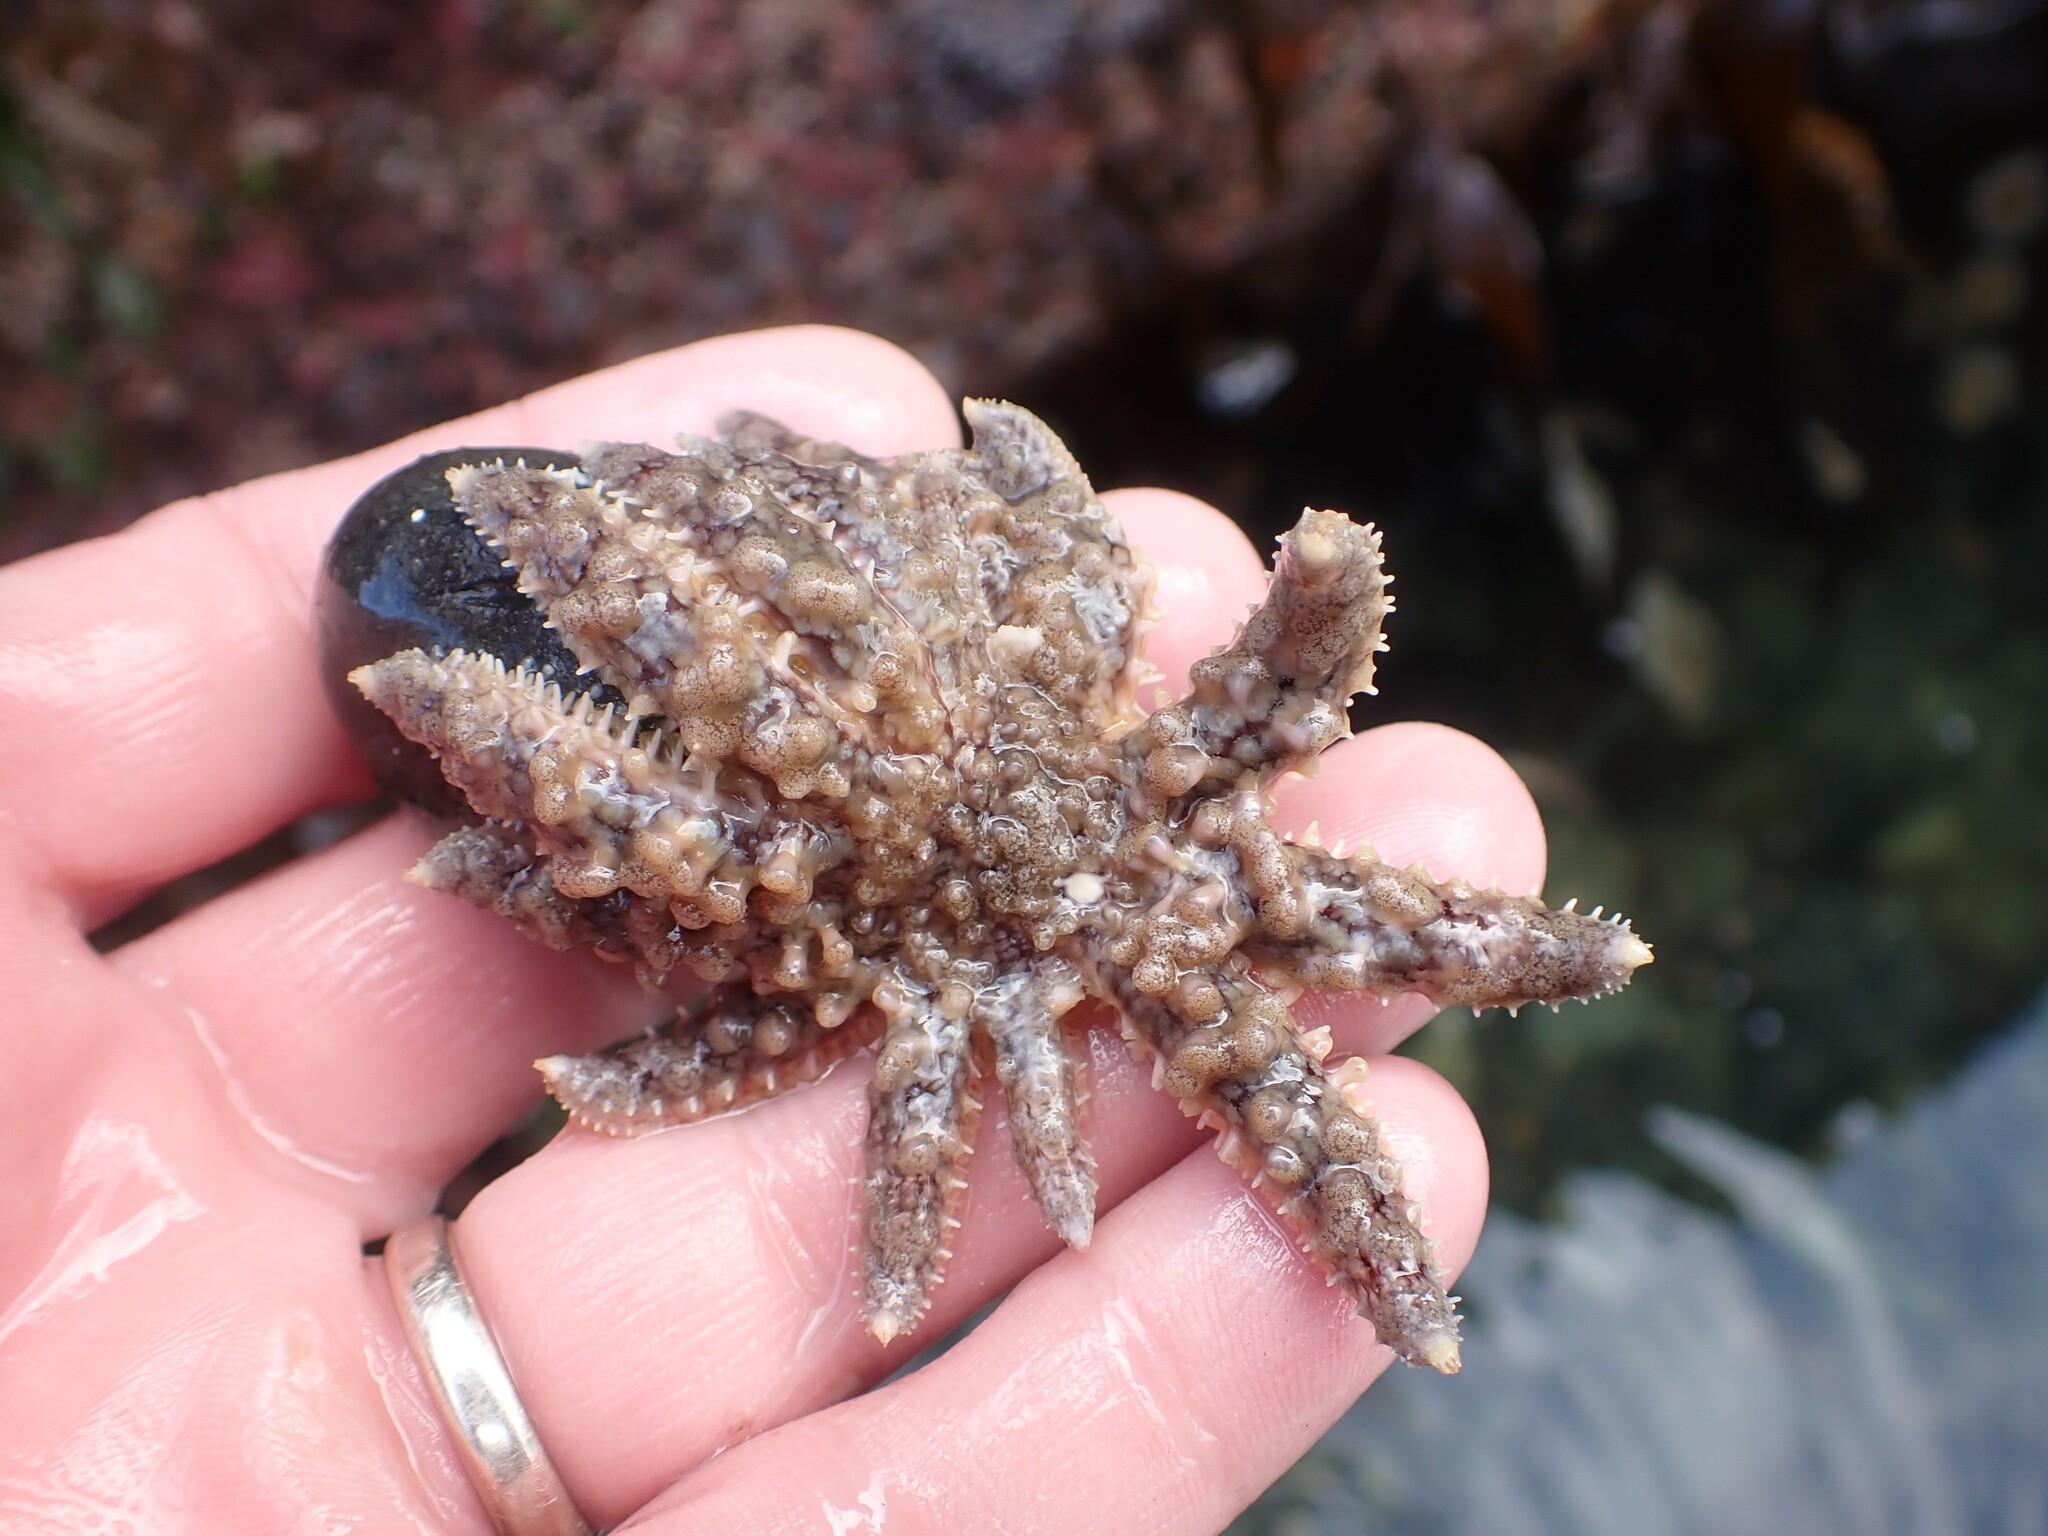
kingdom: Animalia
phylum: Echinodermata
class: Asteroidea
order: Forcipulatida
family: Asteriidae
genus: Pycnopodia
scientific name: Pycnopodia helianthoides
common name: Rag mop
